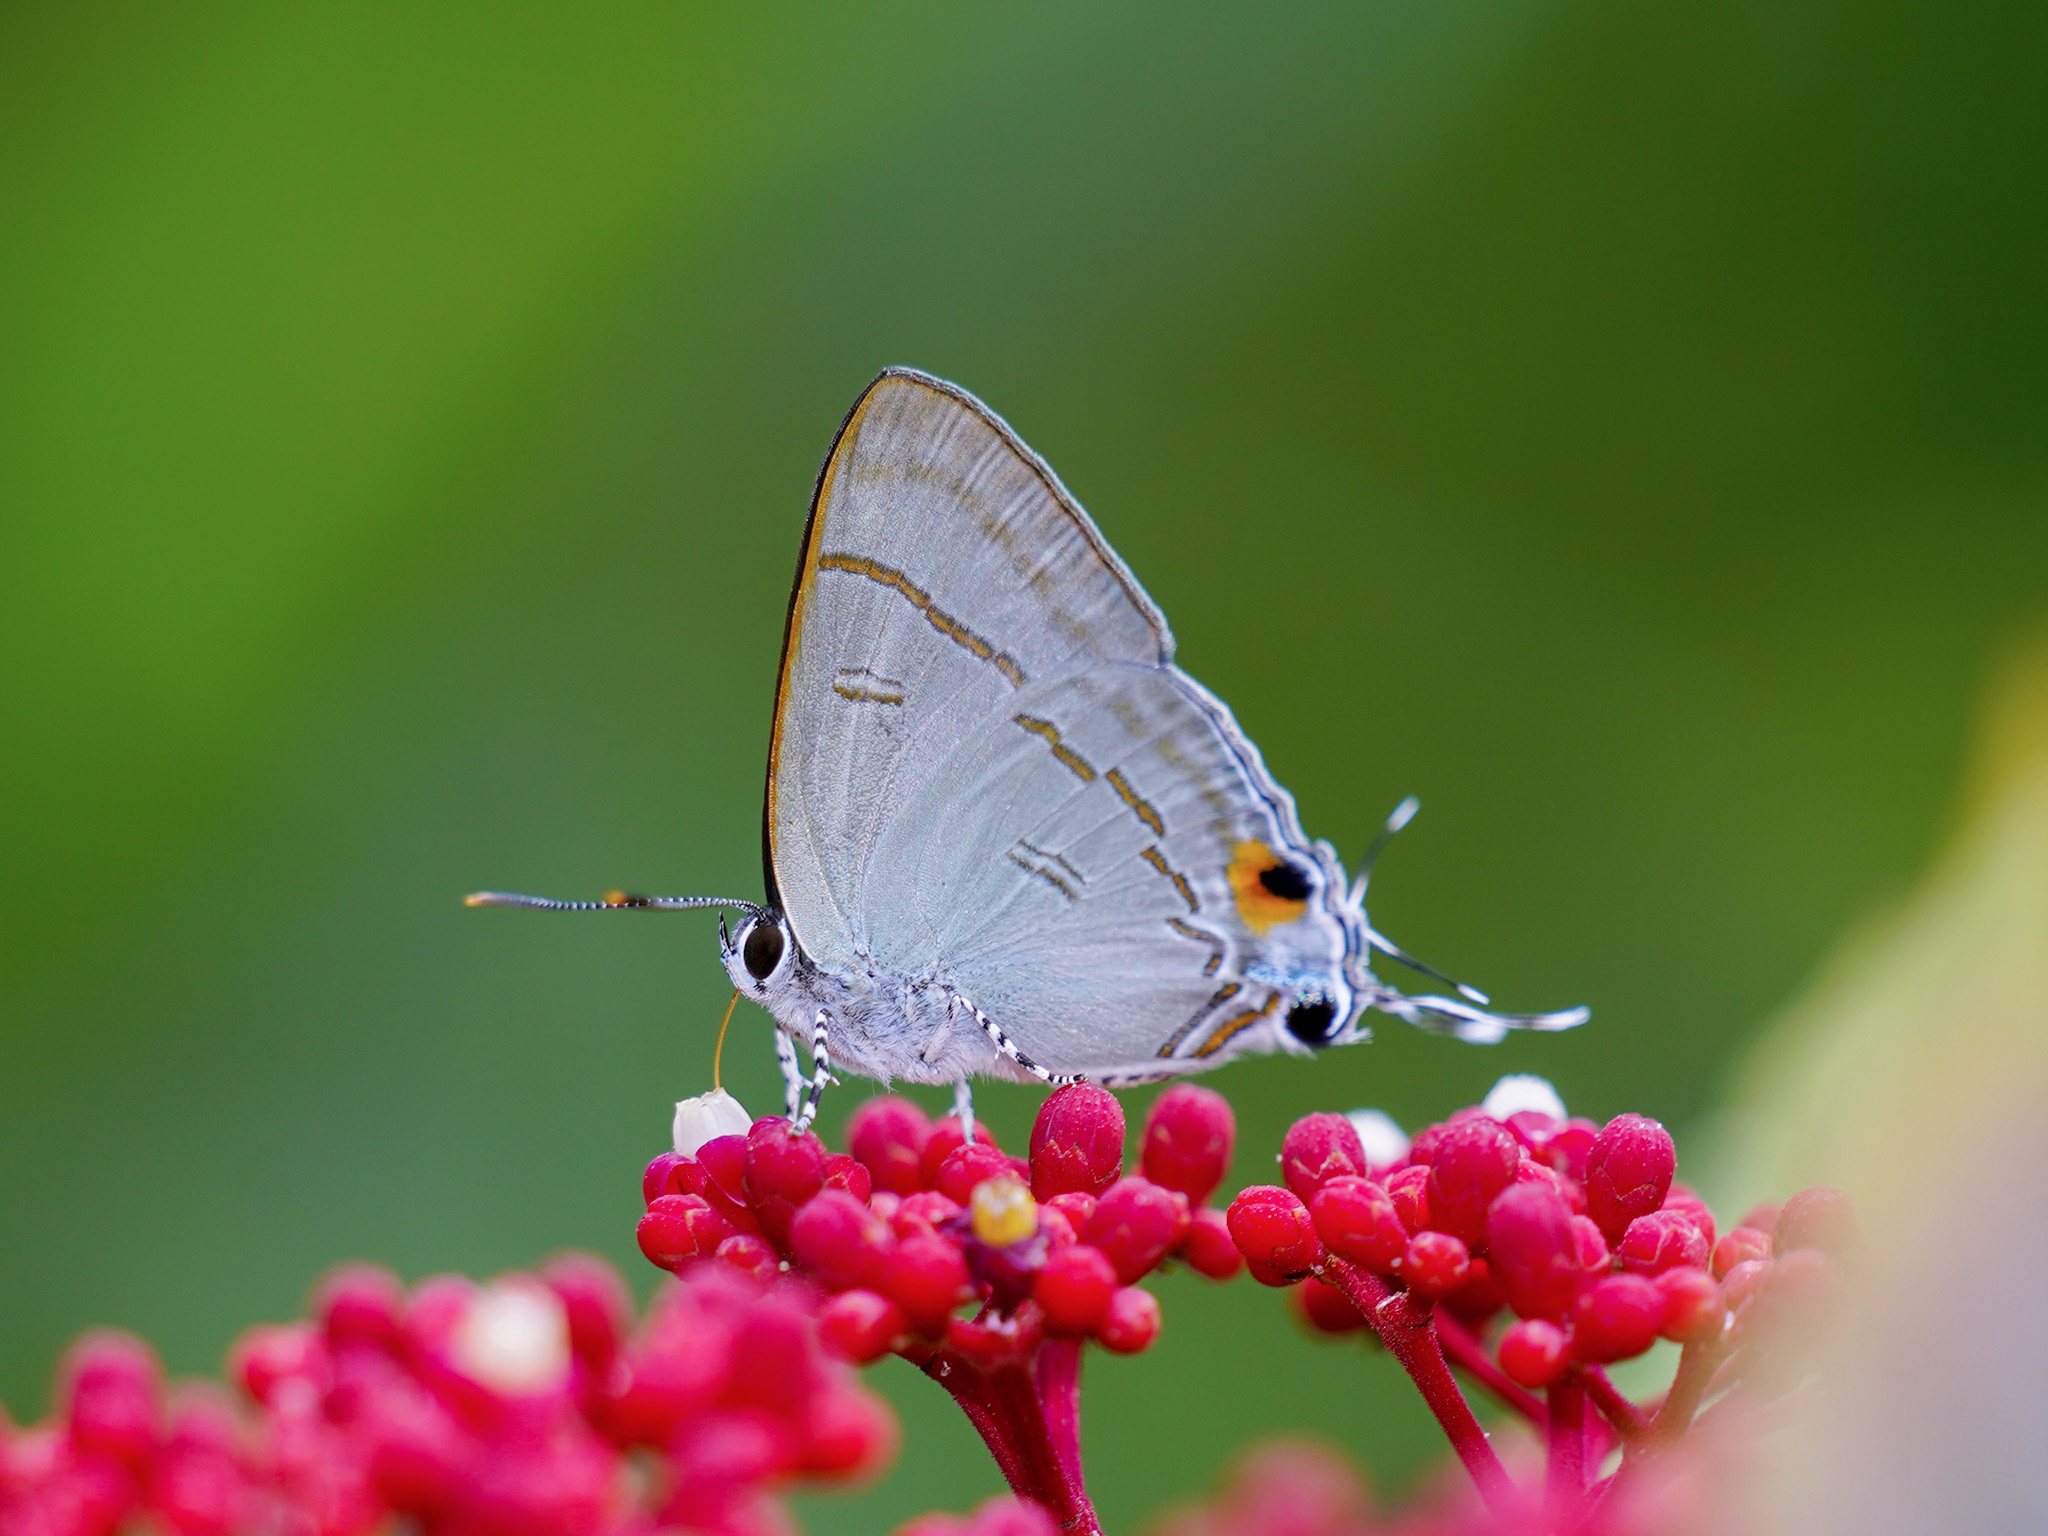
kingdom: Animalia
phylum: Arthropoda
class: Insecta
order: Lepidoptera
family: Lycaenidae
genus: Hypolycaena
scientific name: Hypolycaena erylus
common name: Common tit
